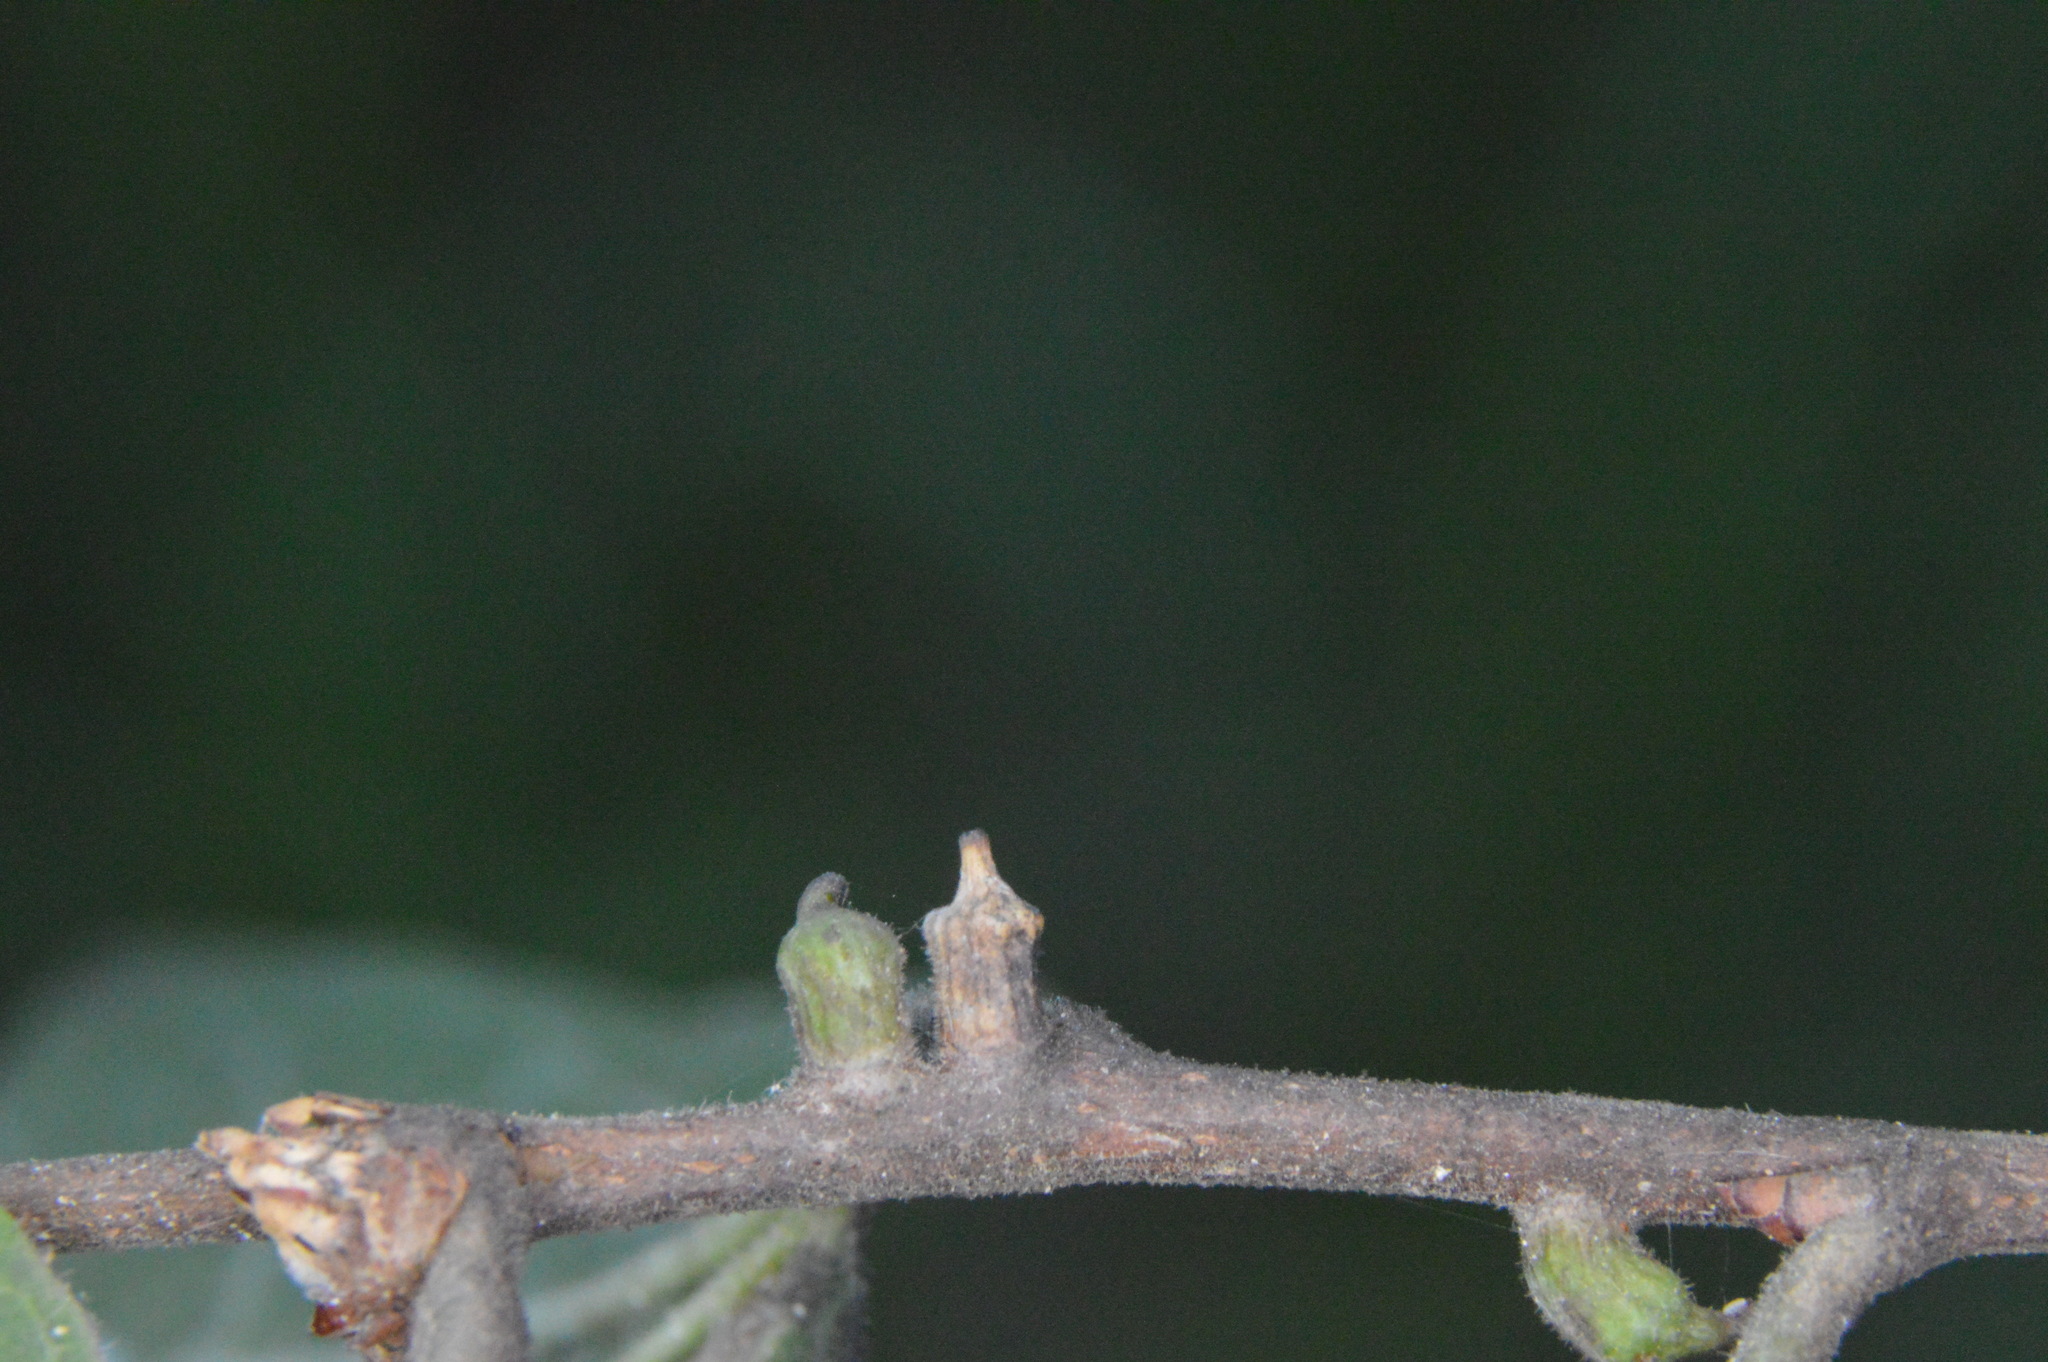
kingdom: Animalia
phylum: Arthropoda
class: Insecta
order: Diptera
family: Cecidomyiidae
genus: Celticecis
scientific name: Celticecis ramicola
